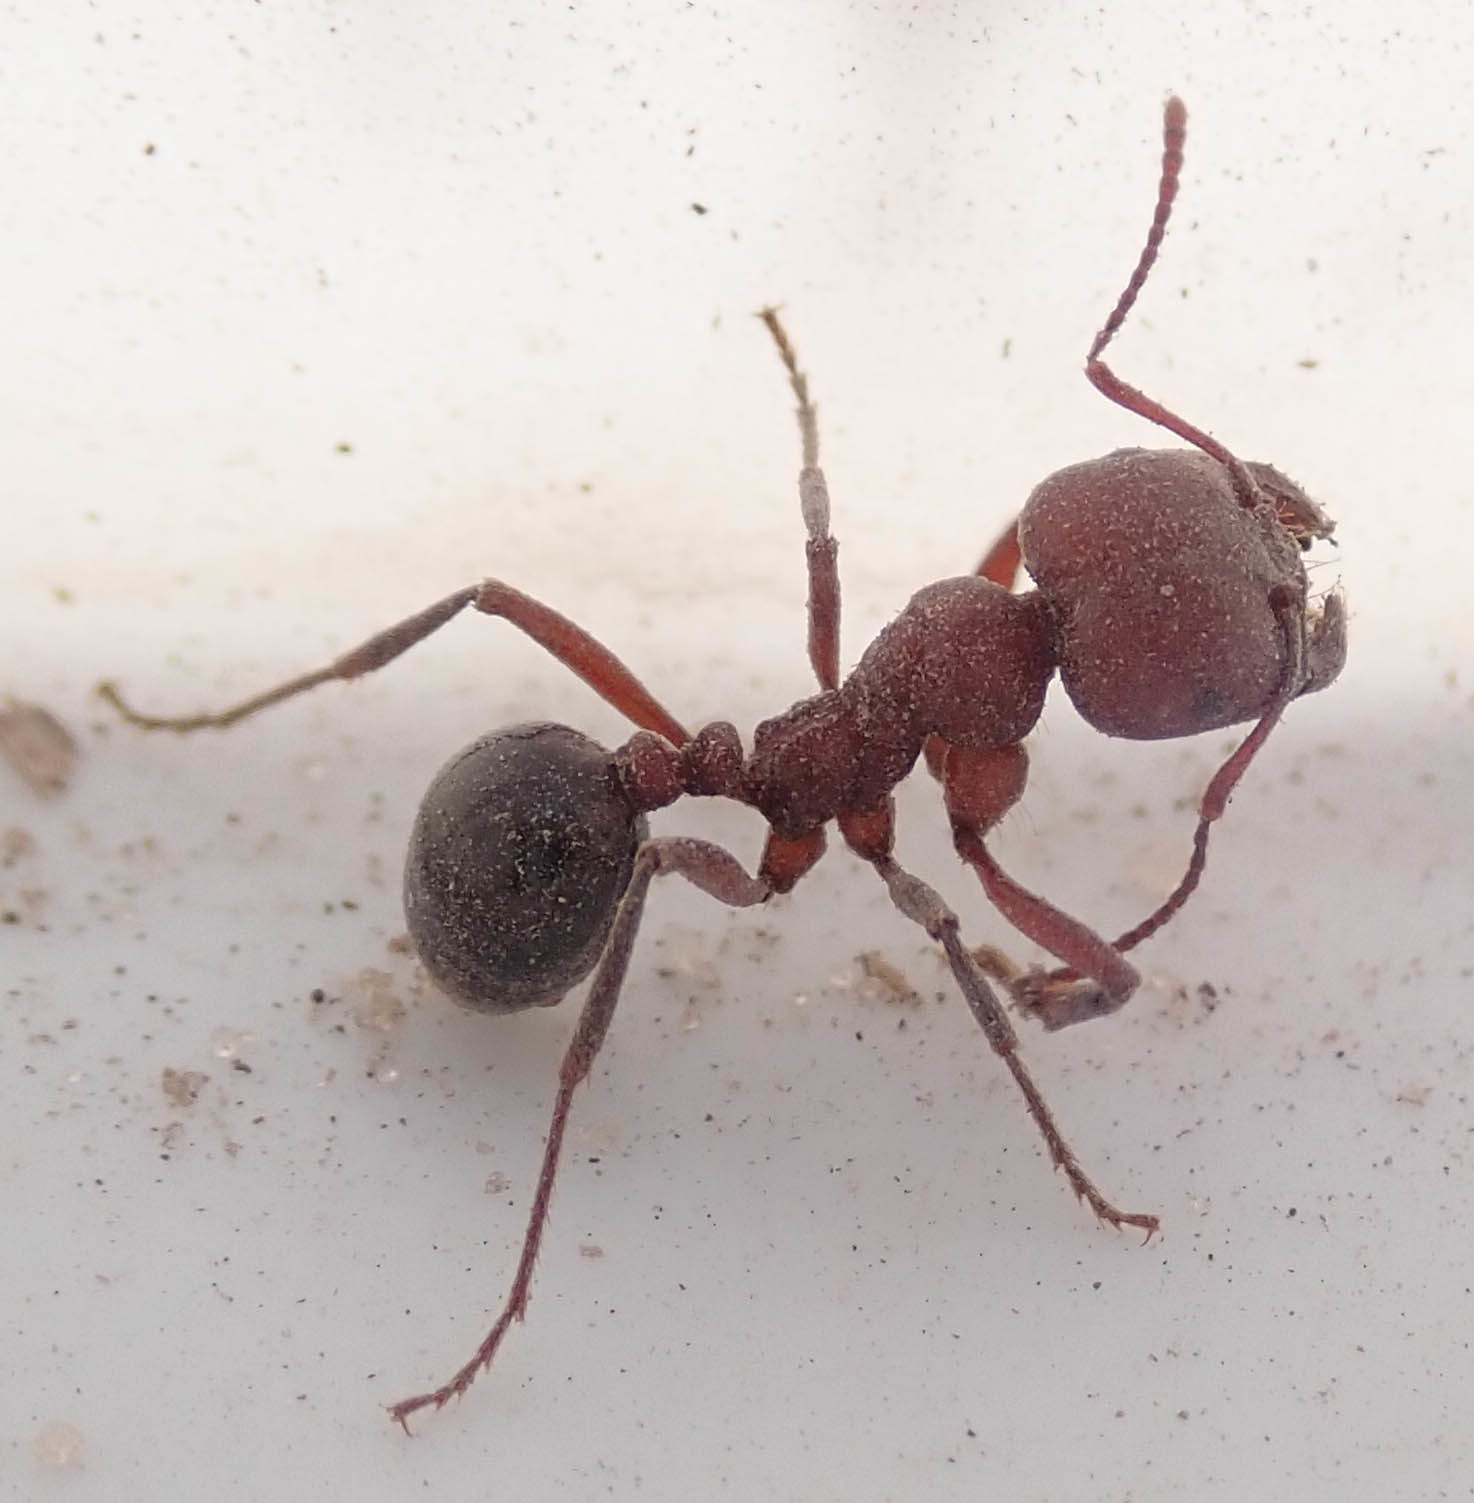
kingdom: Animalia
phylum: Arthropoda
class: Insecta
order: Hymenoptera
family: Formicidae
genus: Messor
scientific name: Messor luebberti
